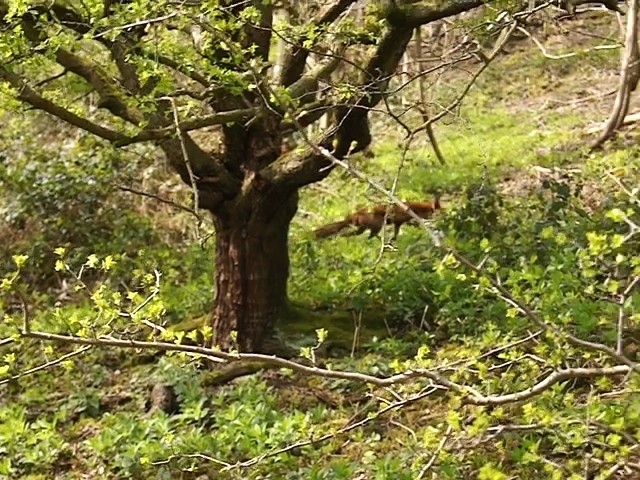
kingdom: Animalia
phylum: Chordata
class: Mammalia
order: Carnivora
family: Canidae
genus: Vulpes
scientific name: Vulpes vulpes
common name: Red fox
